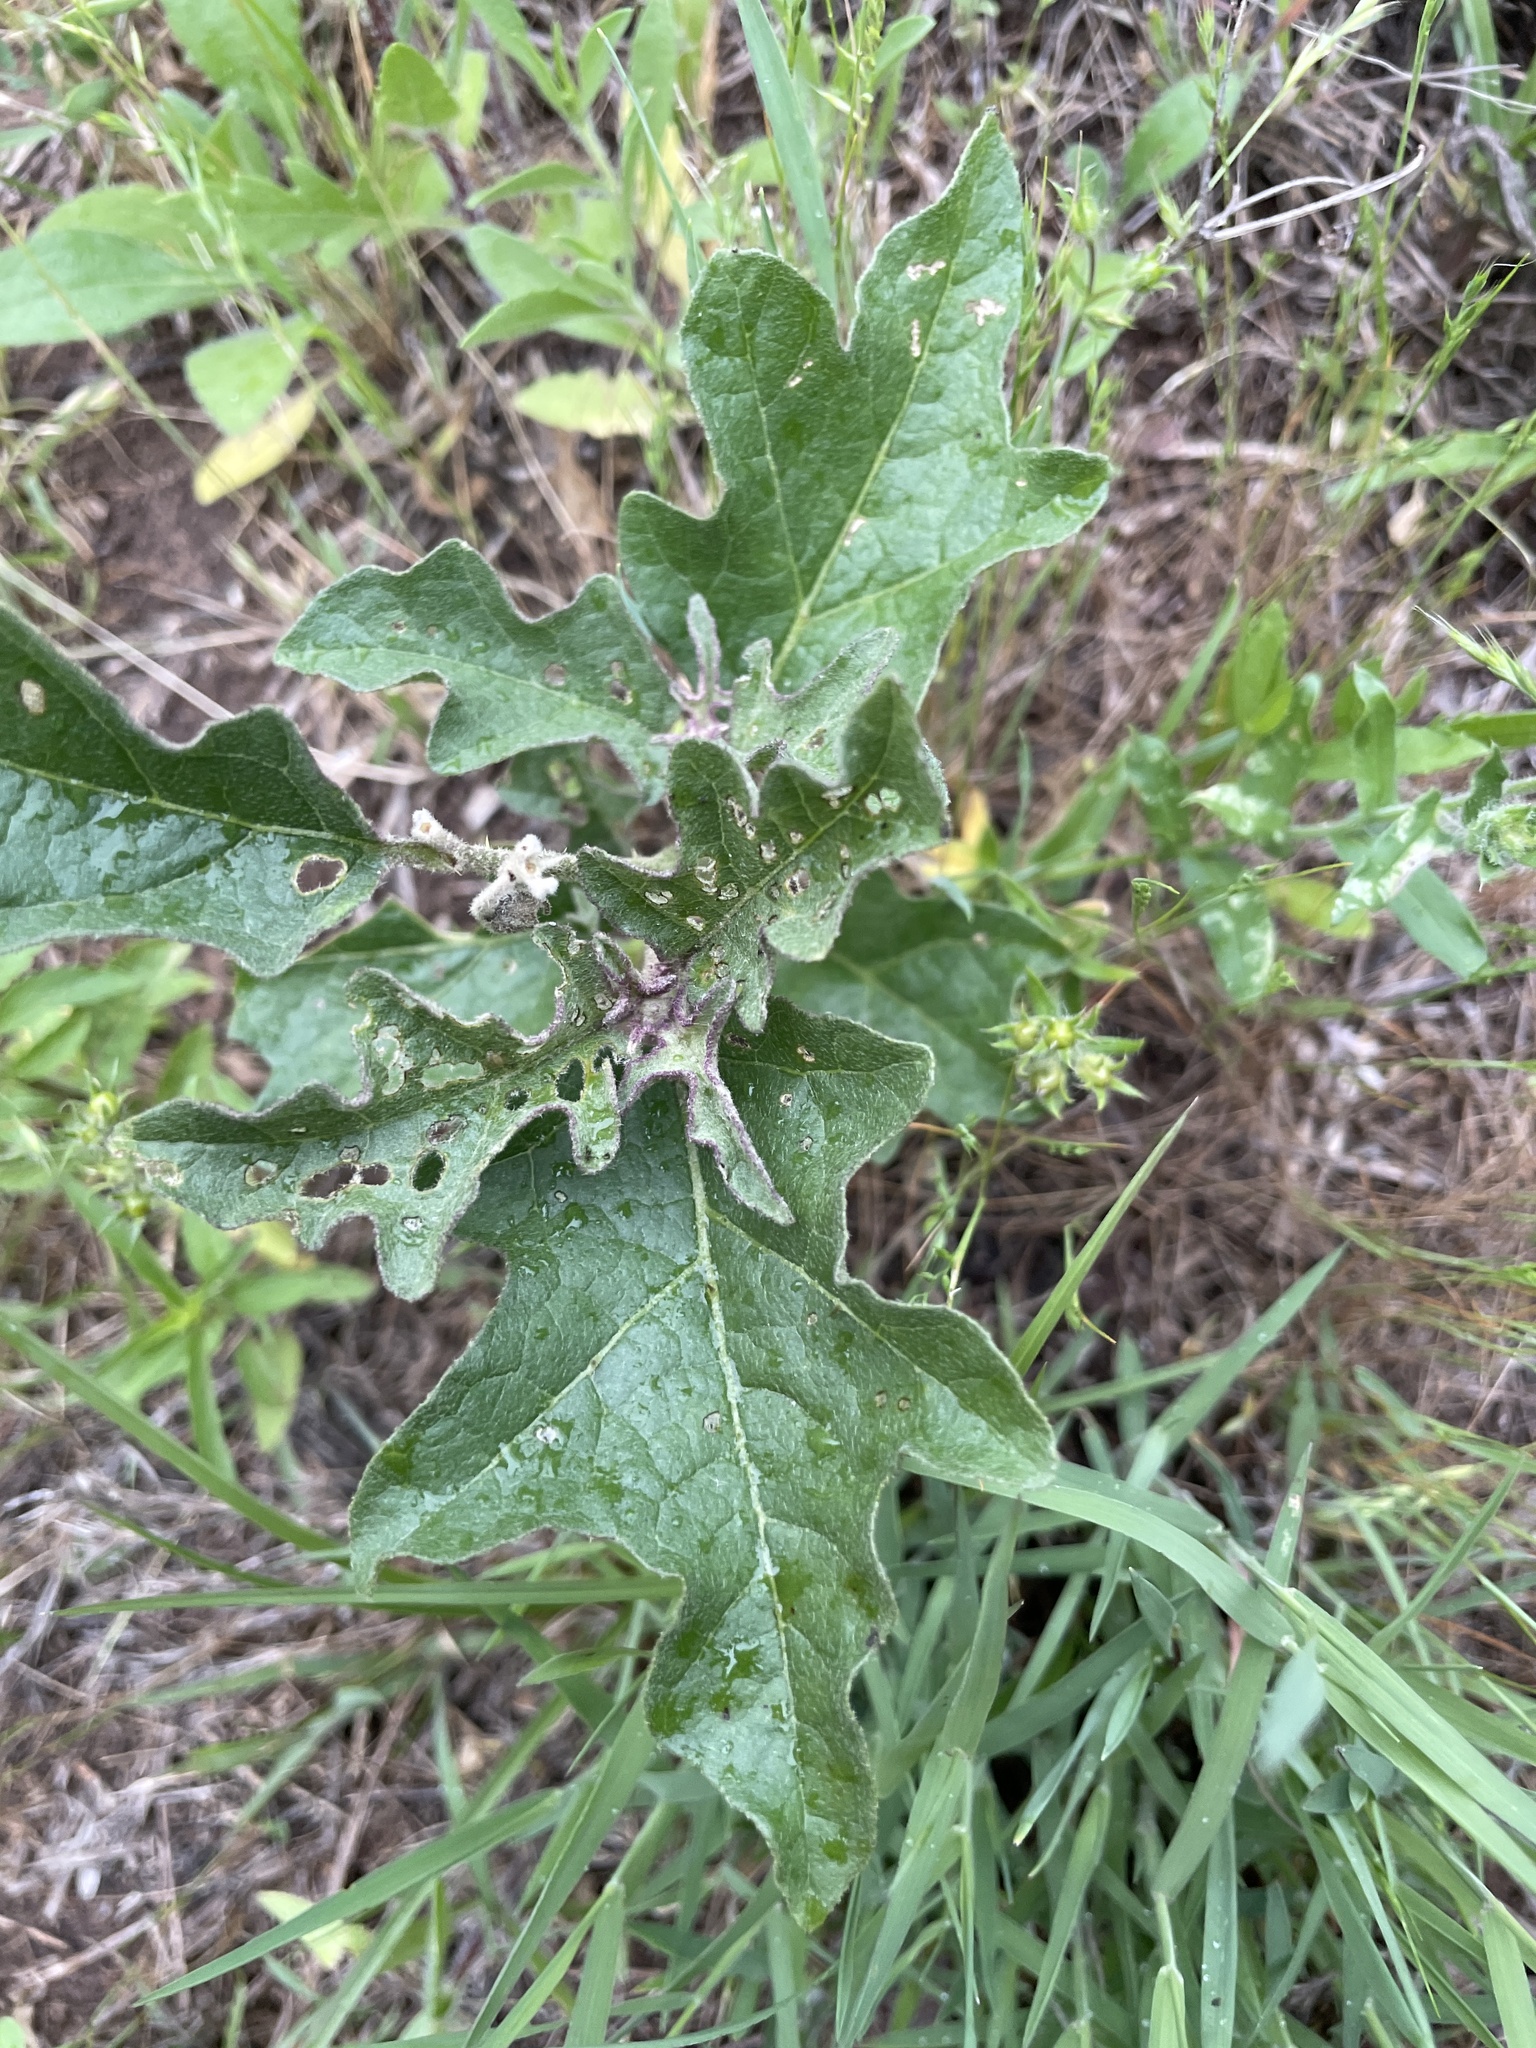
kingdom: Plantae
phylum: Tracheophyta
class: Magnoliopsida
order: Solanales
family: Solanaceae
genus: Solanum
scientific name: Solanum dimidiatum
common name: Carolina horse-nettle
